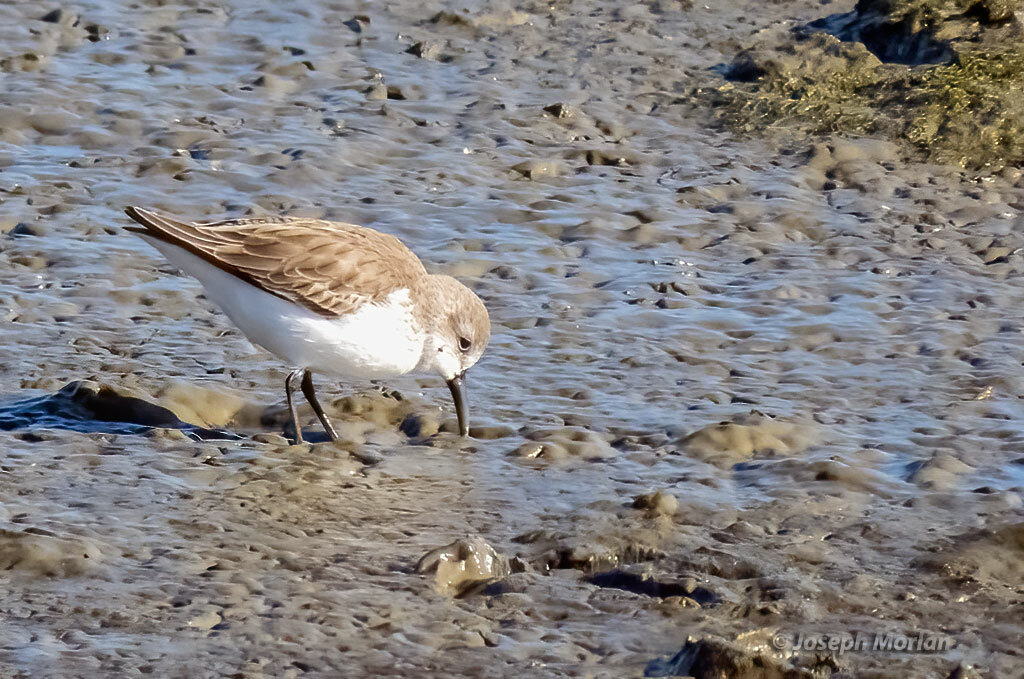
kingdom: Animalia
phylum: Chordata
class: Aves
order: Charadriiformes
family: Scolopacidae
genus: Calidris
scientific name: Calidris mauri
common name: Western sandpiper
